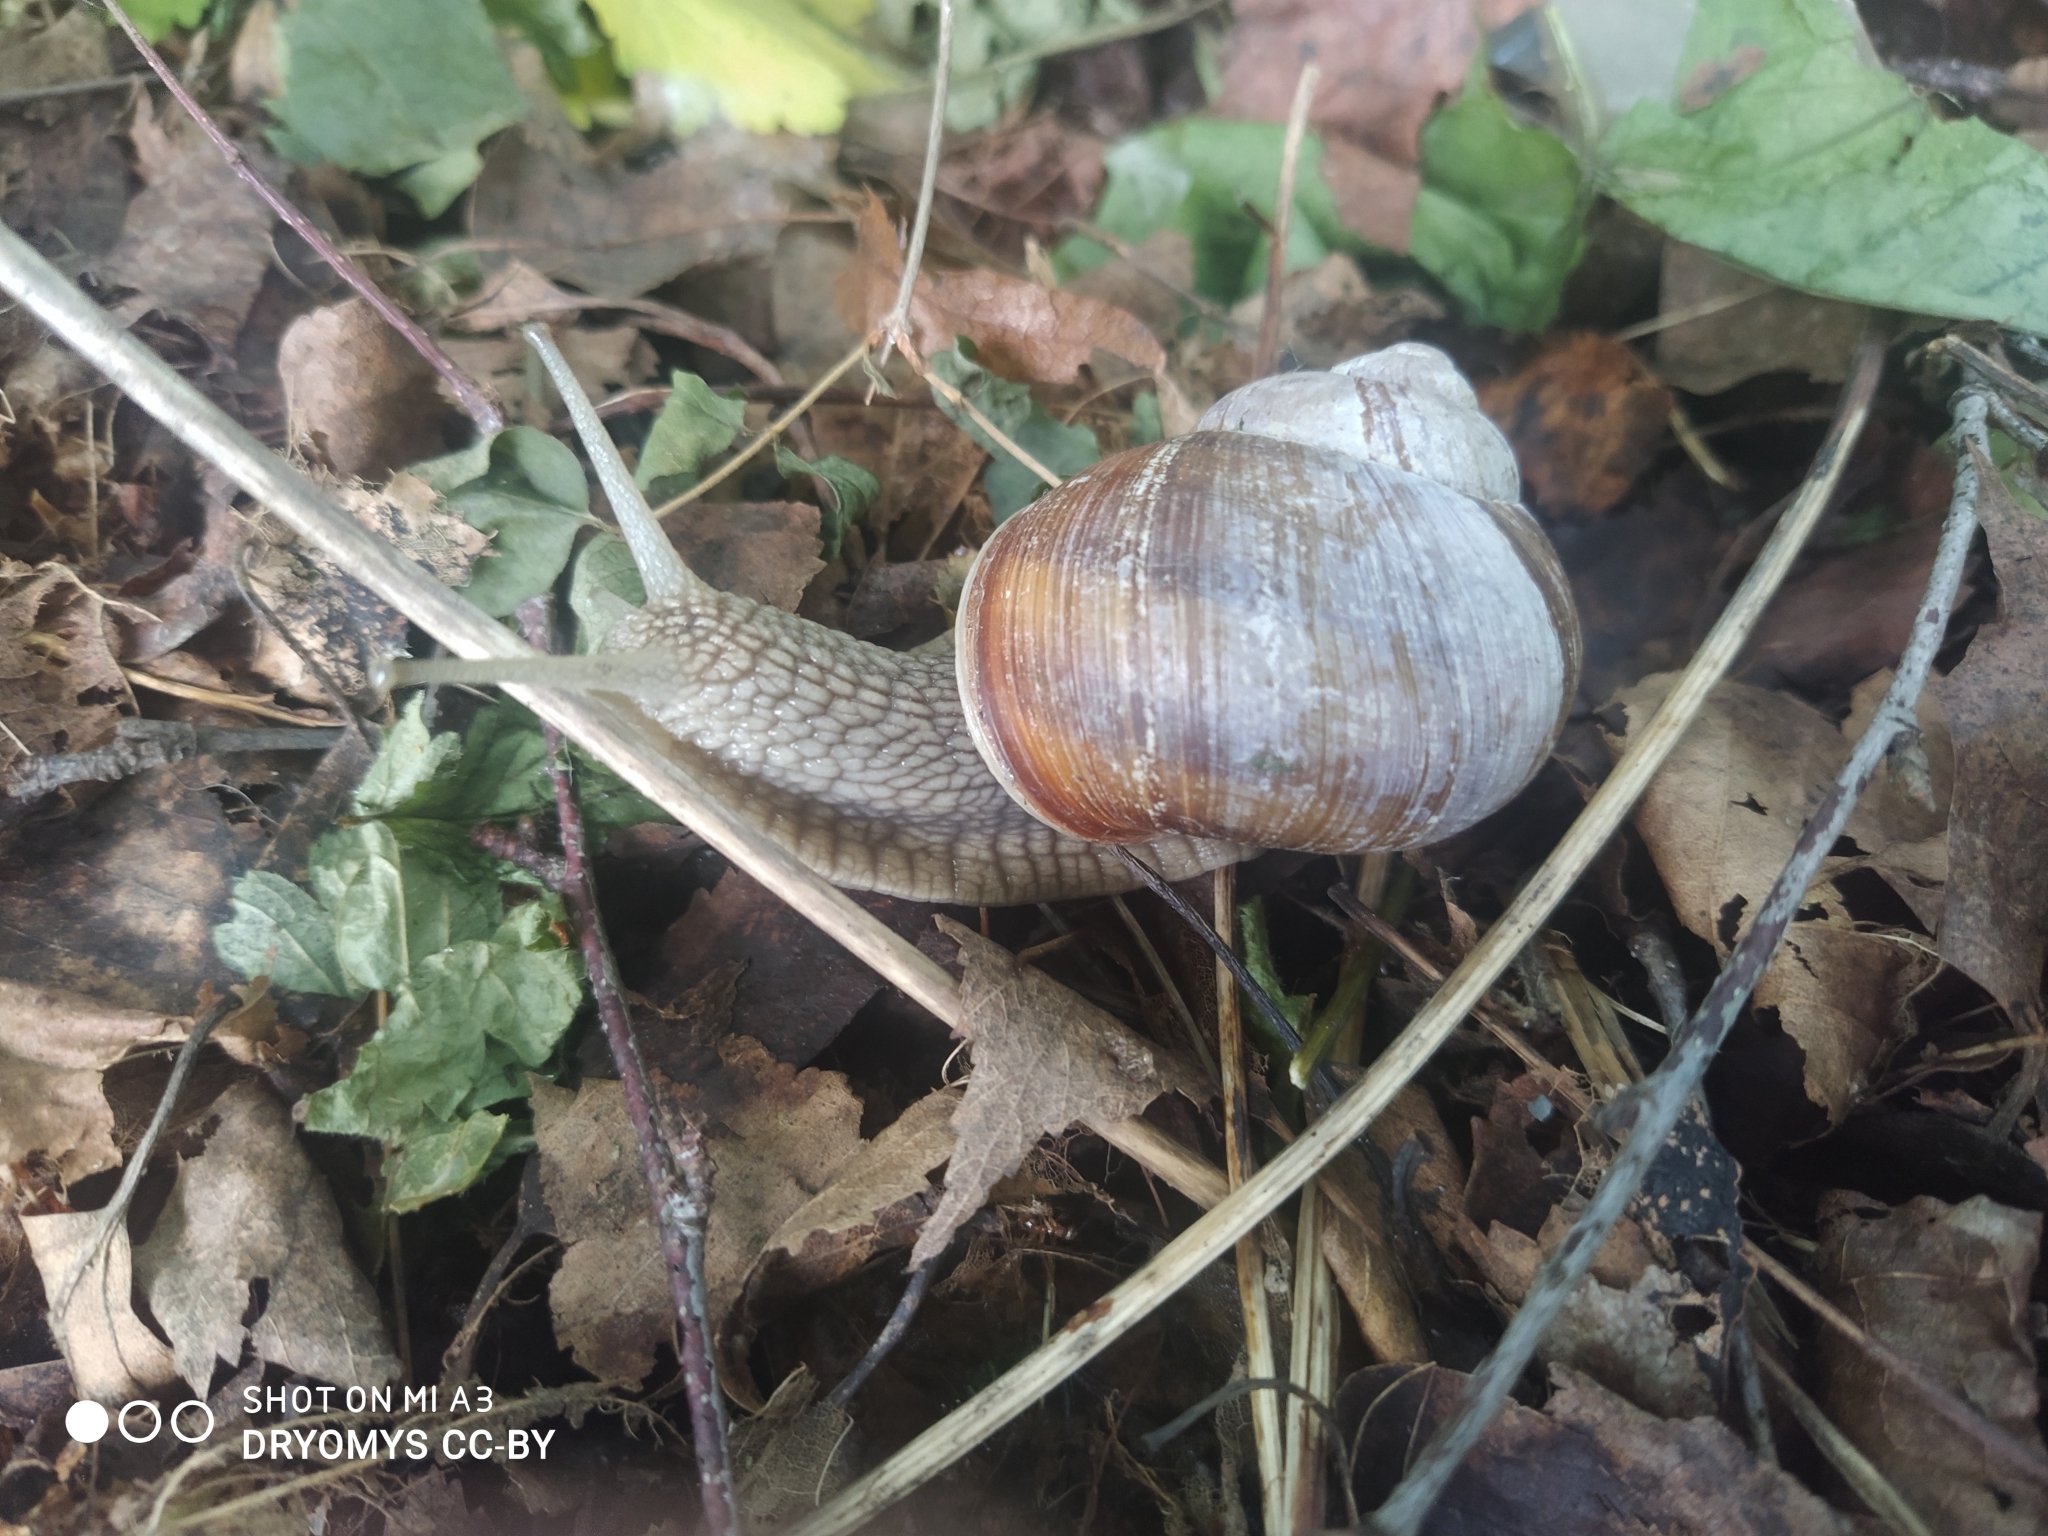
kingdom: Animalia
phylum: Mollusca
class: Gastropoda
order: Stylommatophora
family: Helicidae
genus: Helix
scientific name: Helix pomatia
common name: Roman snail
